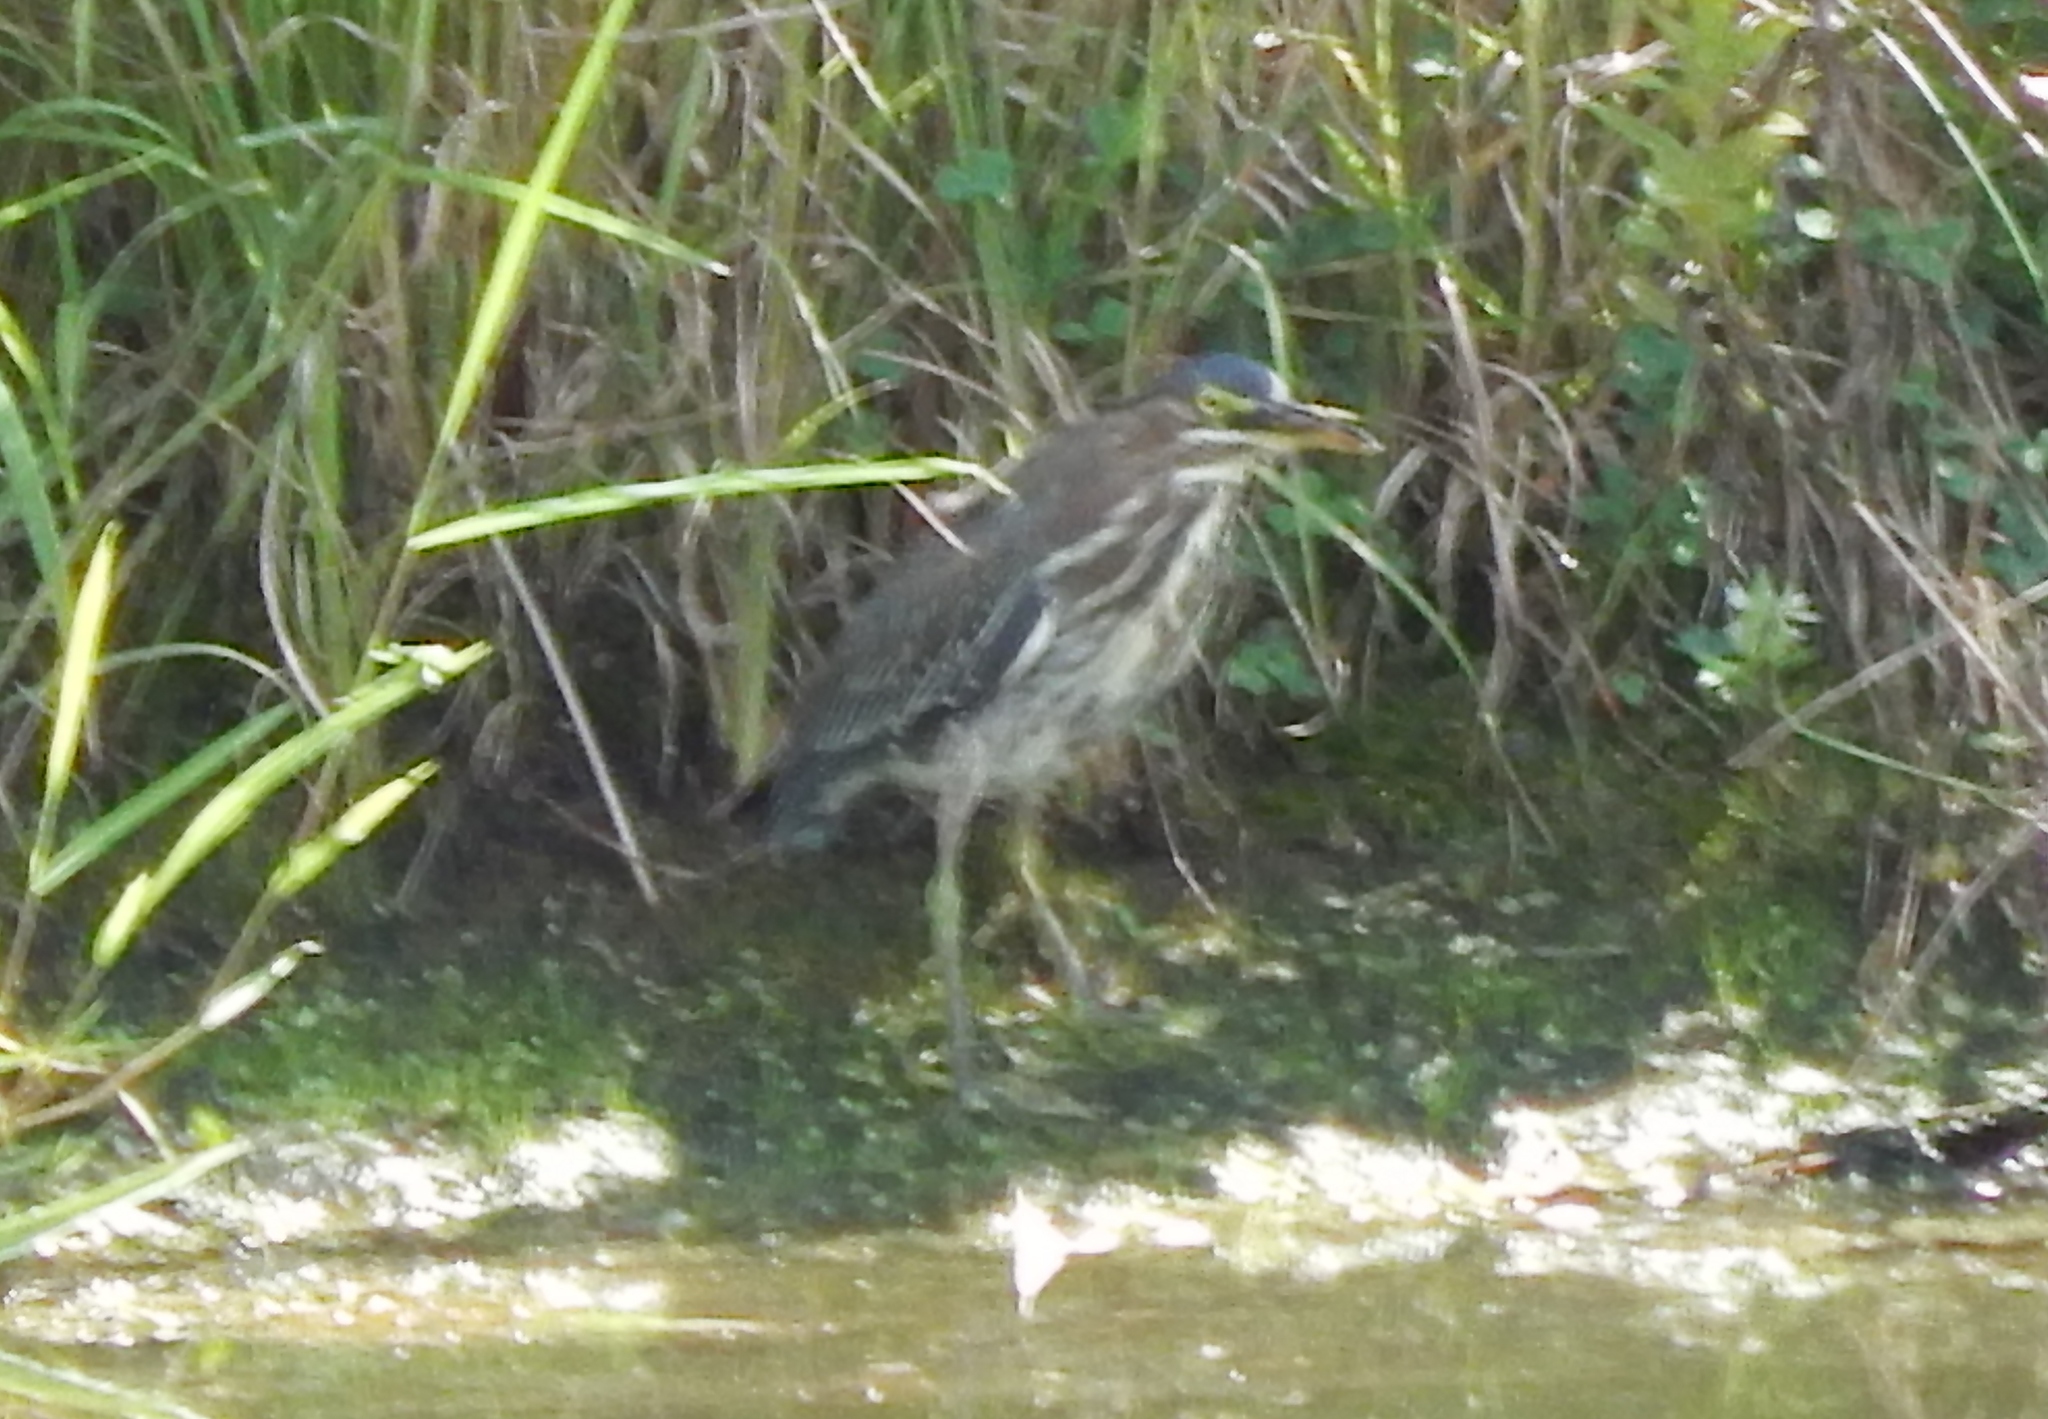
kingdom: Animalia
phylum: Chordata
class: Aves
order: Pelecaniformes
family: Ardeidae
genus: Butorides
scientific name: Butorides virescens
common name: Green heron
